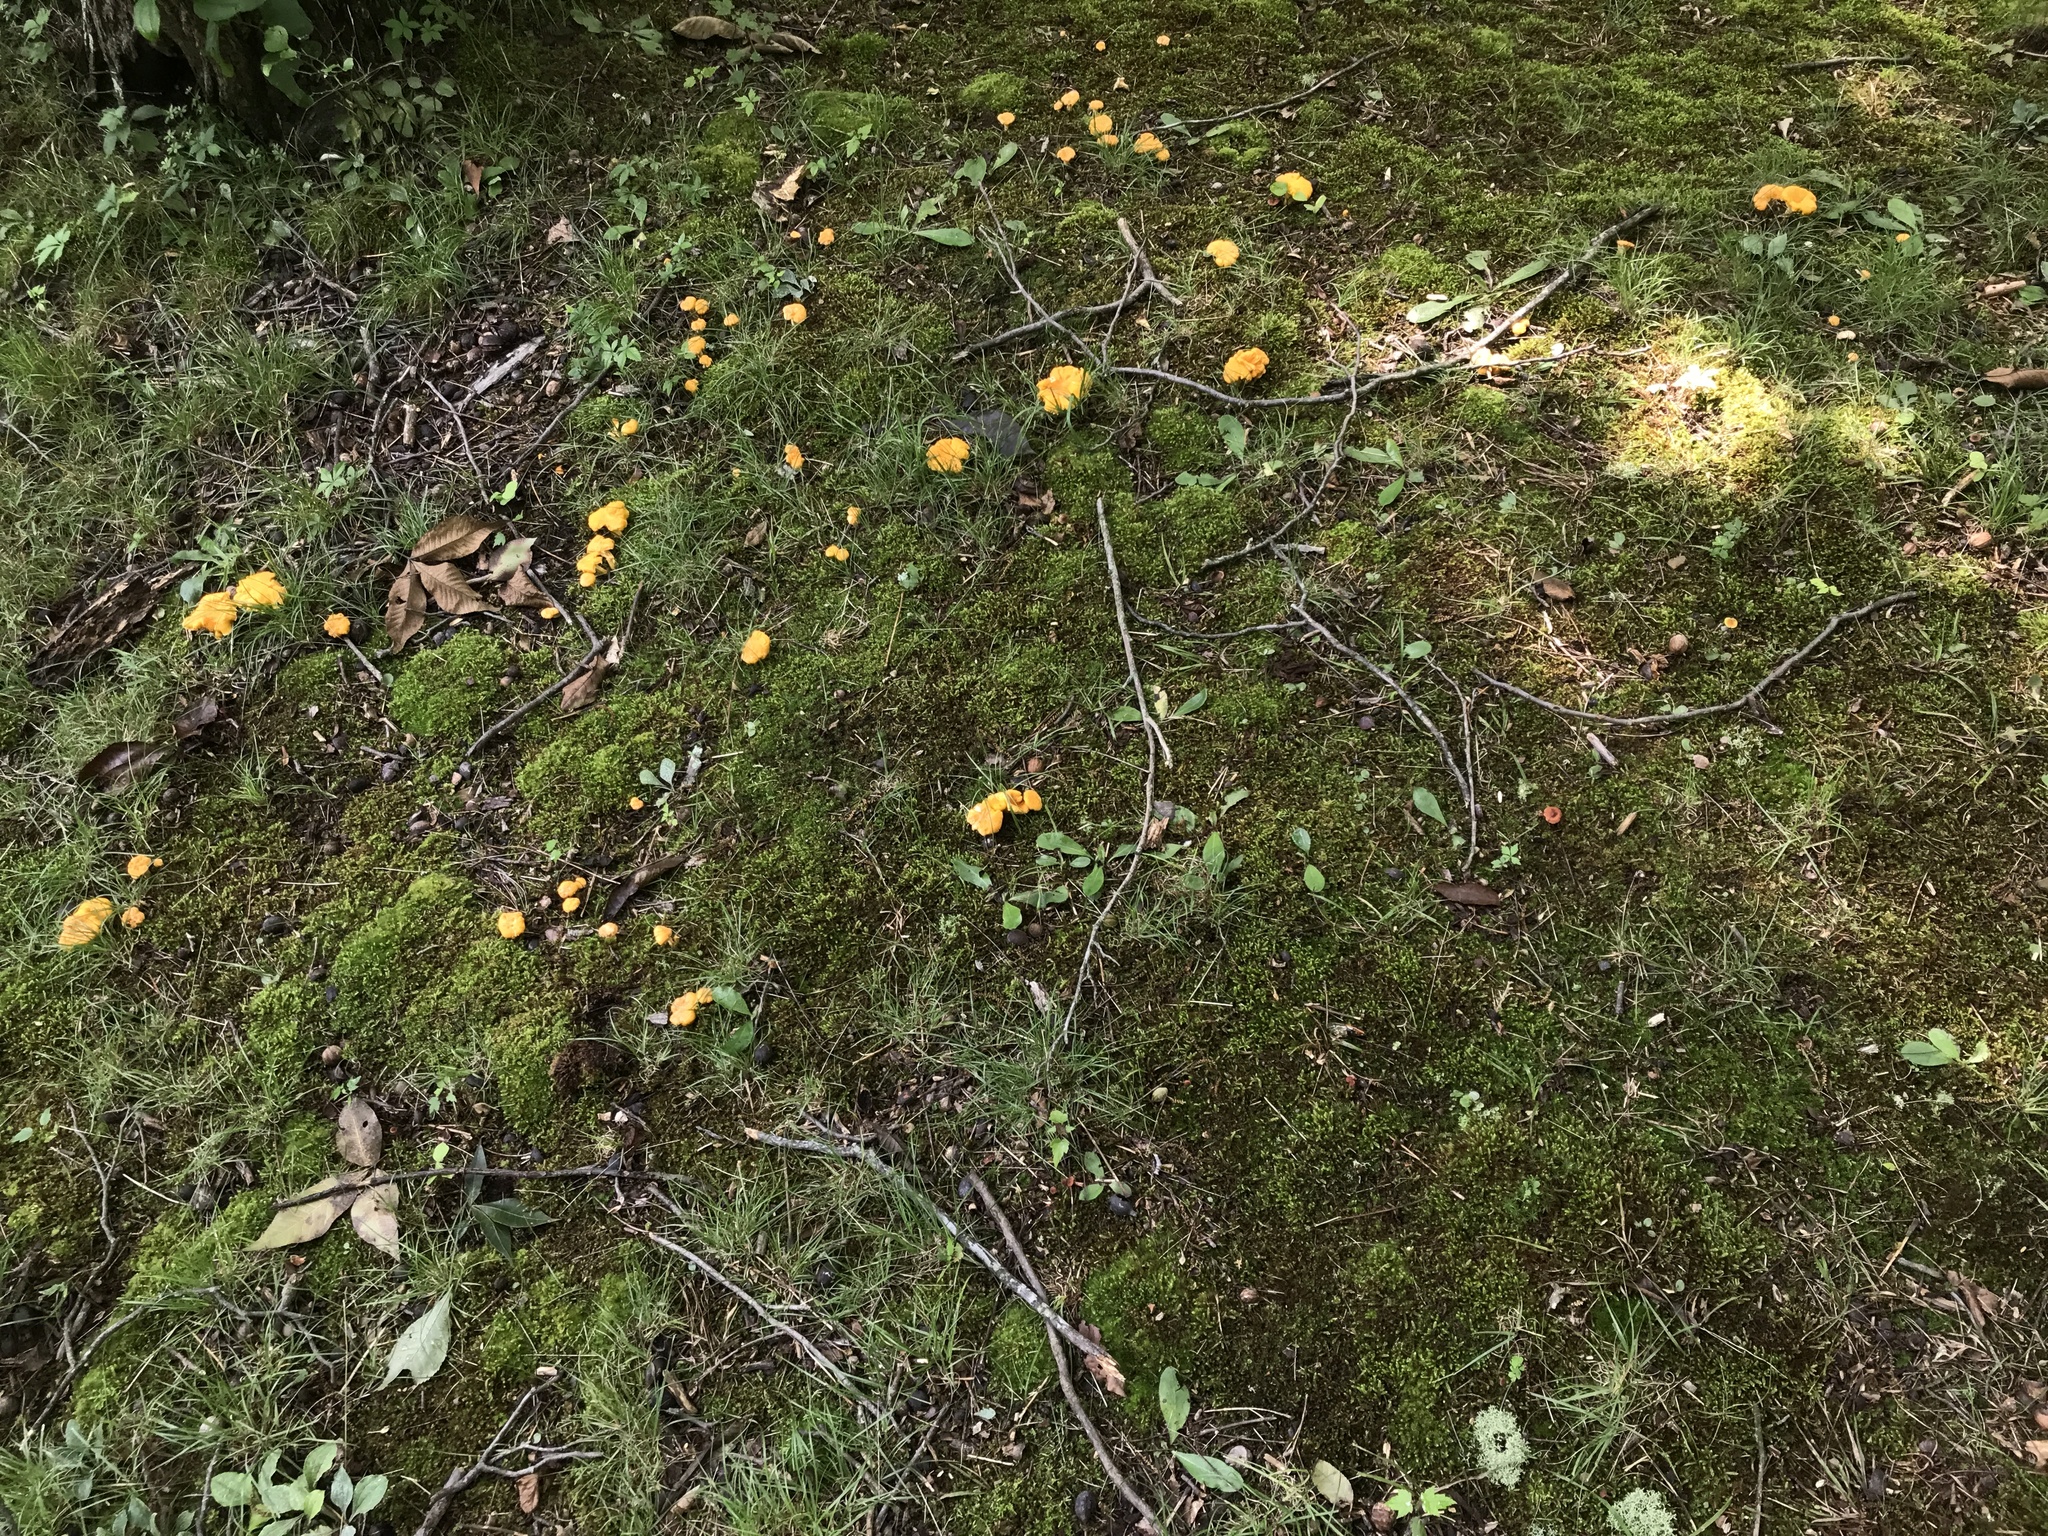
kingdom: Fungi
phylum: Basidiomycota
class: Agaricomycetes
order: Cantharellales
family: Hydnaceae
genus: Cantharellus
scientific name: Cantharellus flavolateritius
